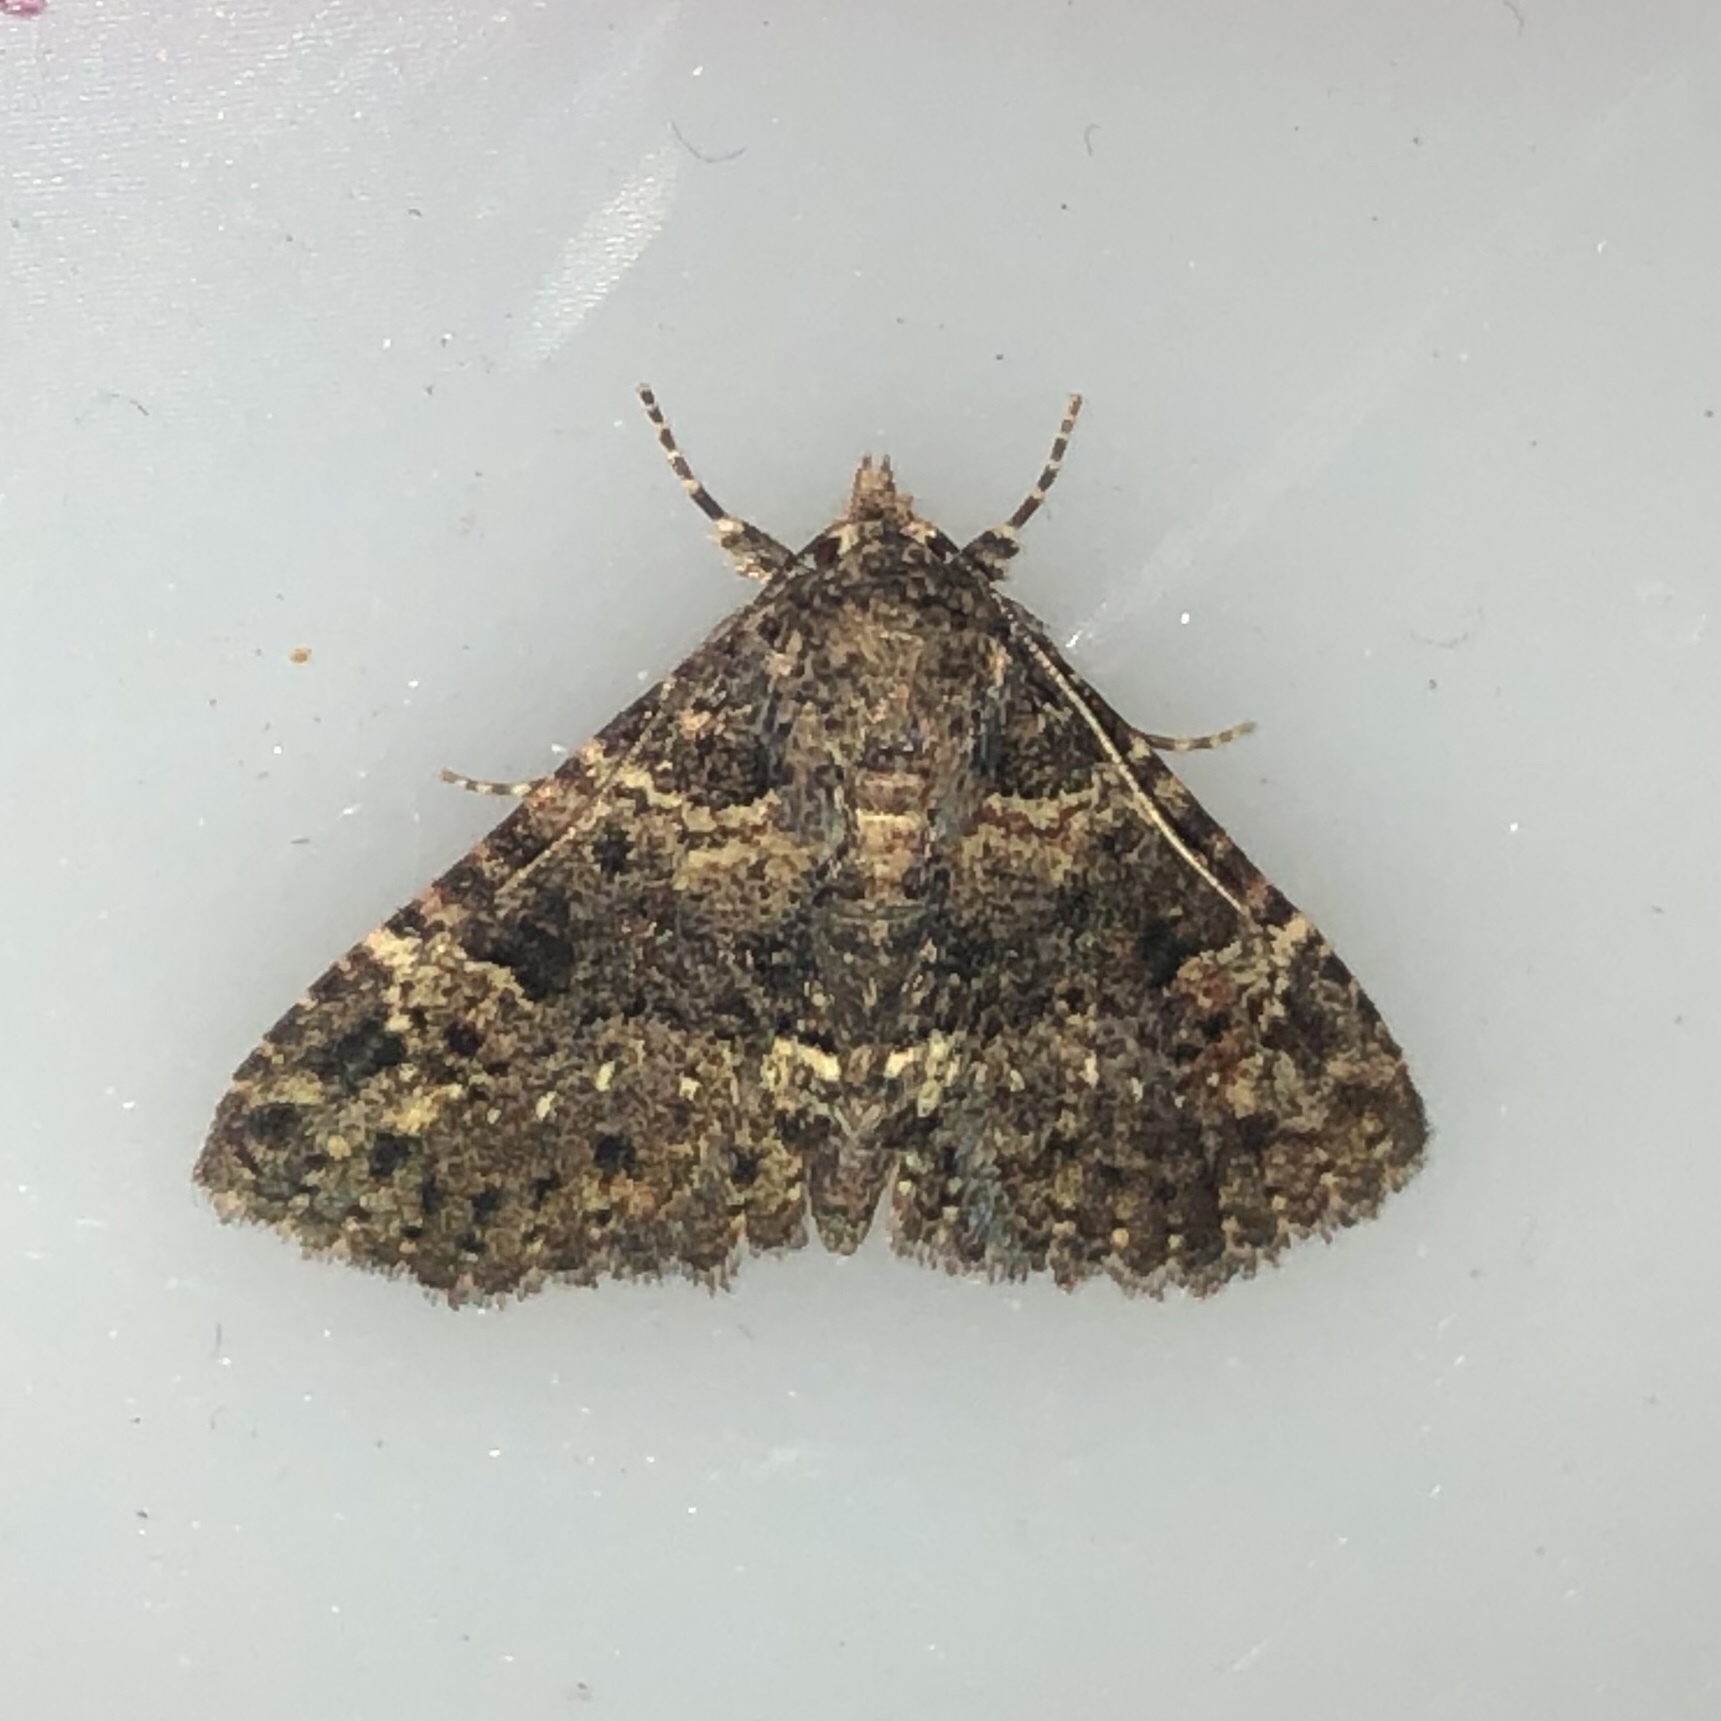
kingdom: Animalia
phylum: Arthropoda
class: Insecta
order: Lepidoptera
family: Erebidae
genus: Metalectra
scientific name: Metalectra discalis
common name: Common fungus moth
